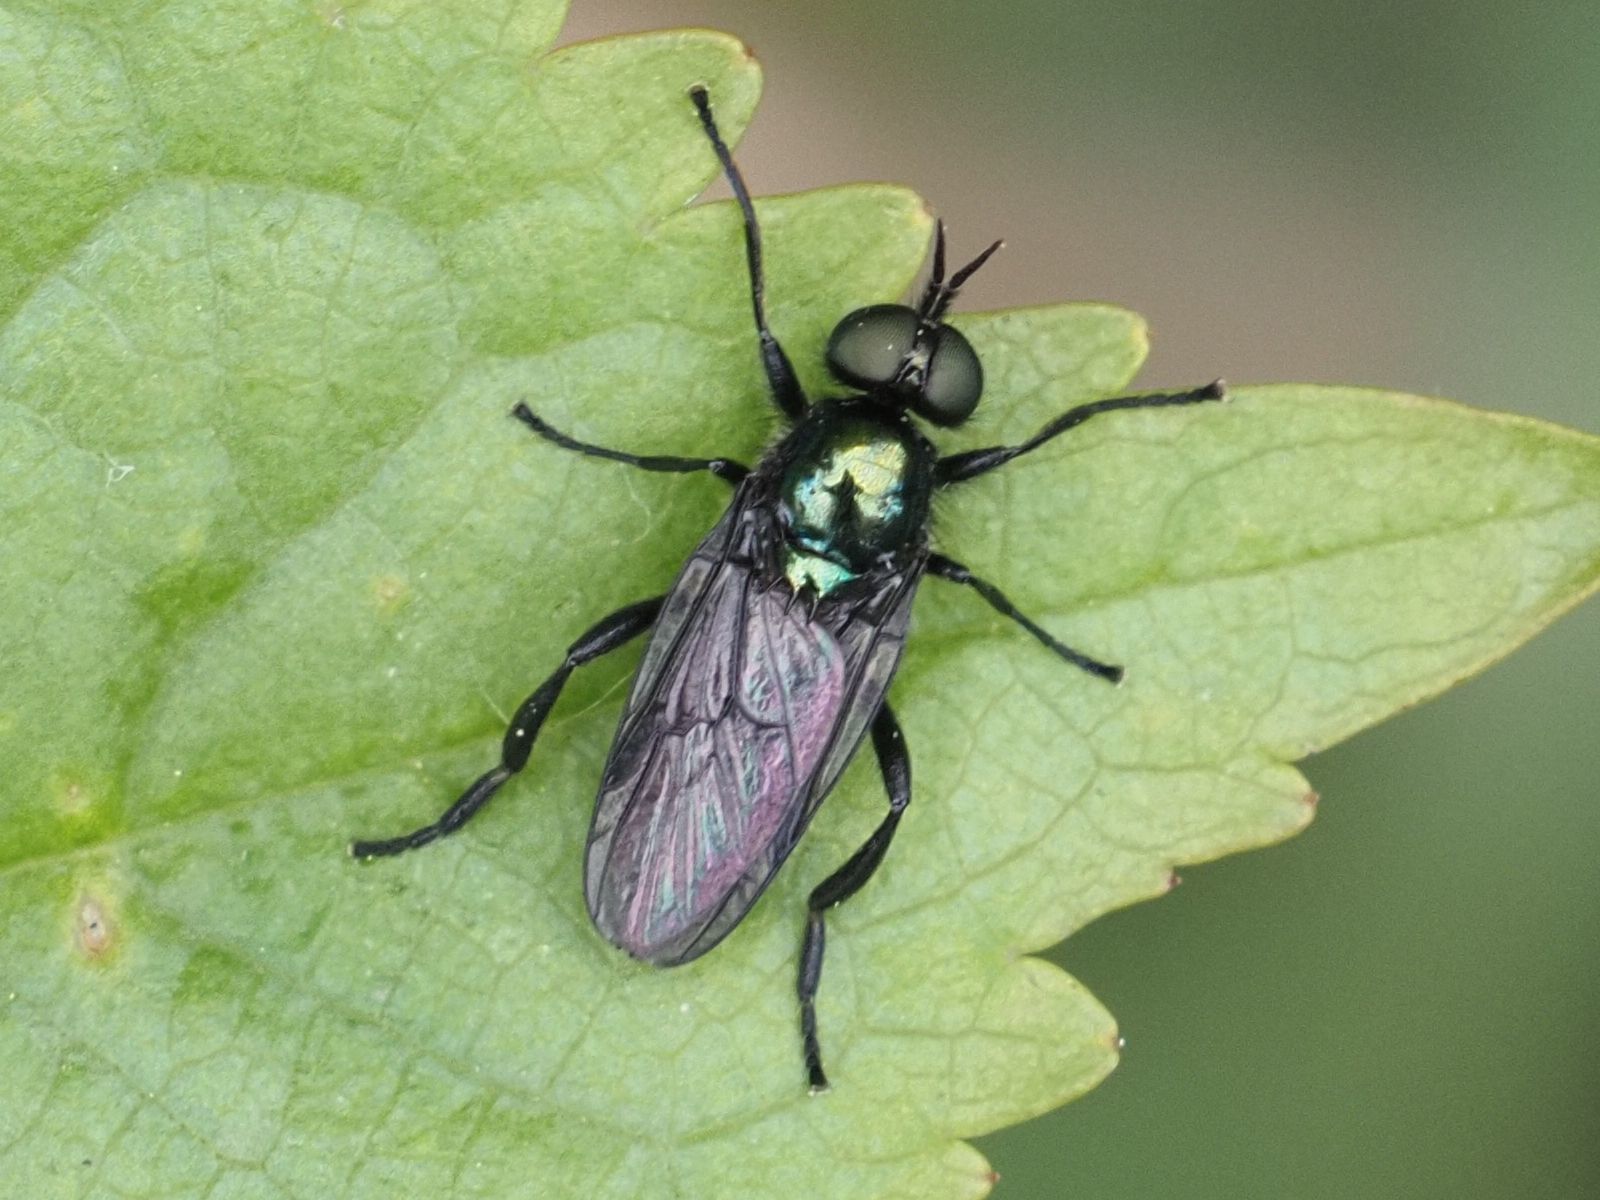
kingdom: Animalia
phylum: Arthropoda
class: Insecta
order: Diptera
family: Stratiomyidae
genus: Actina
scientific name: Actina chalybea
